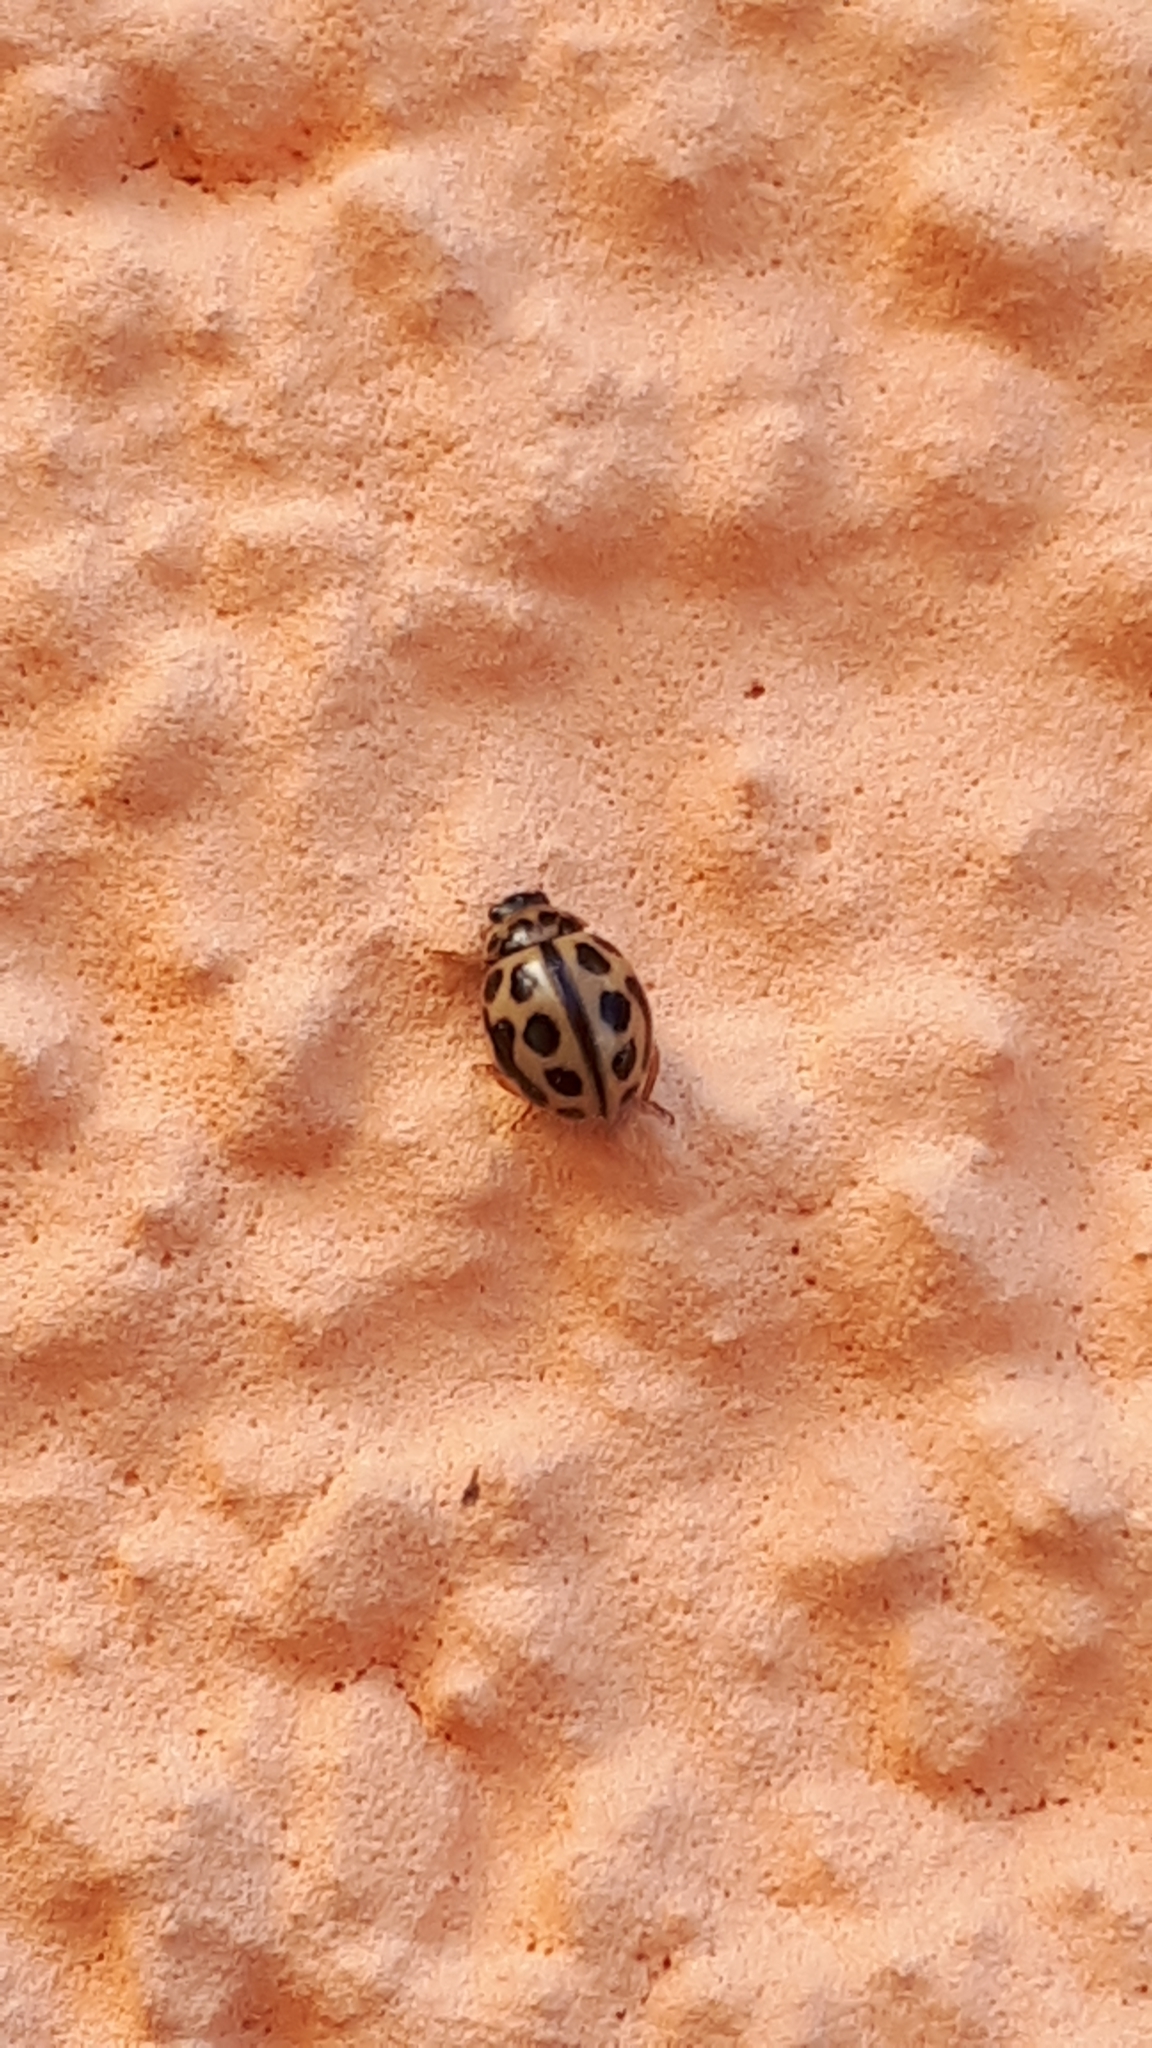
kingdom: Animalia
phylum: Arthropoda
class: Insecta
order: Coleoptera
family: Coccinellidae
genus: Tytthaspis
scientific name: Tytthaspis sedecimpunctata
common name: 16-spot ladybird
